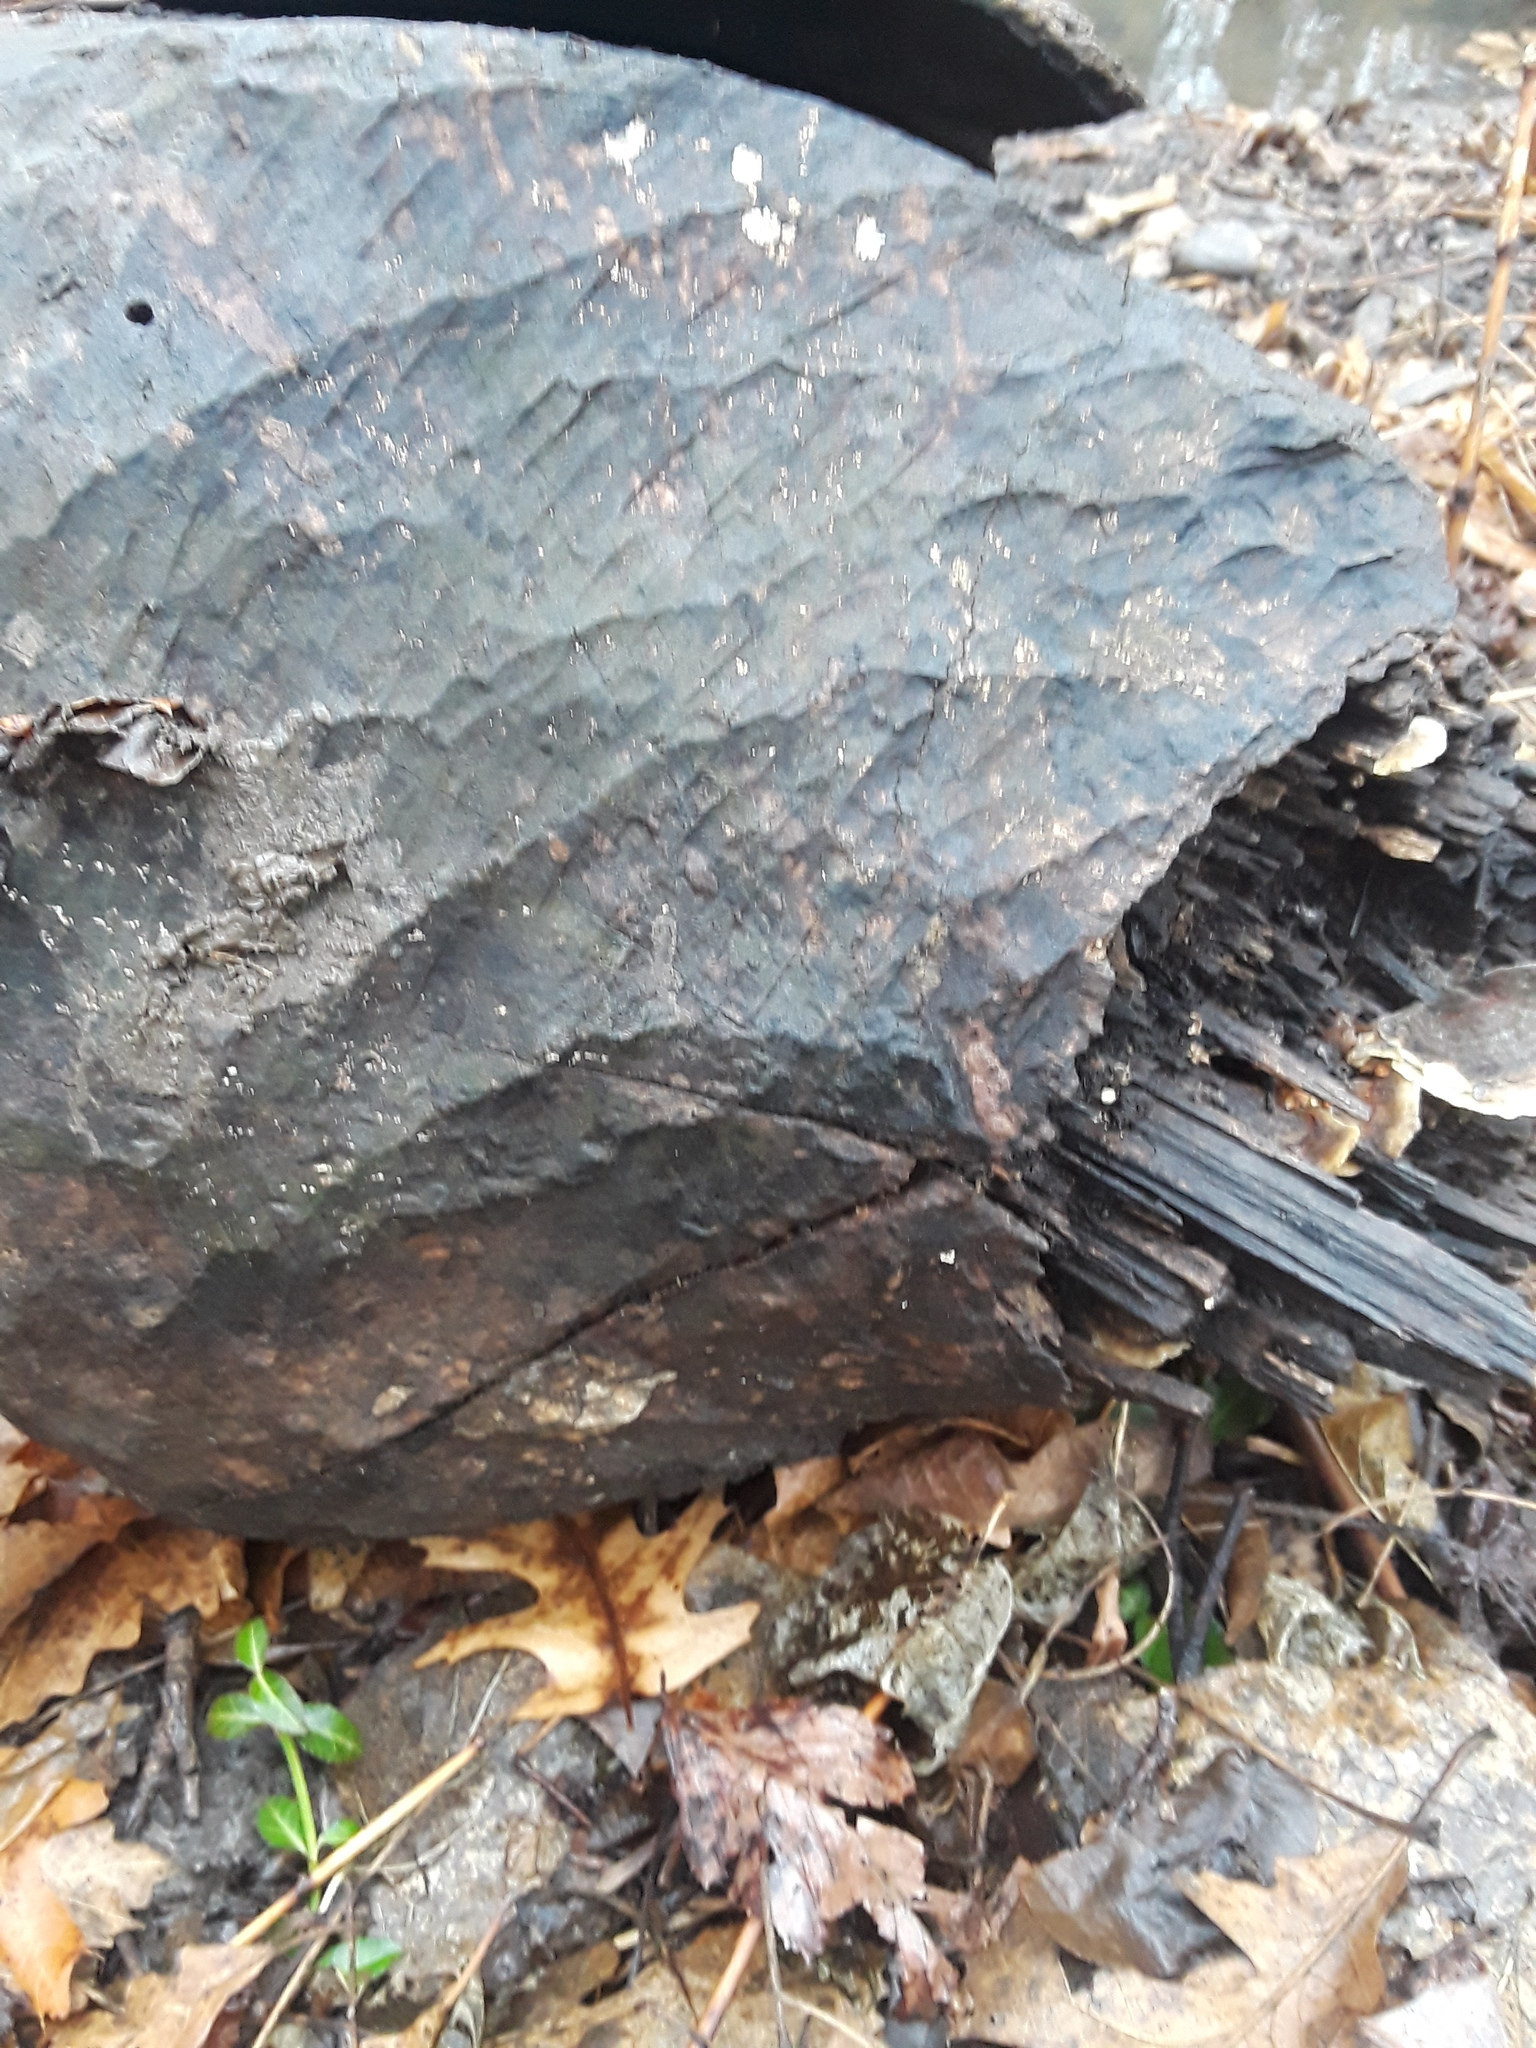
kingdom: Animalia
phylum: Chordata
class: Mammalia
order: Rodentia
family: Castoridae
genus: Castor
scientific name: Castor canadensis
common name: American beaver
